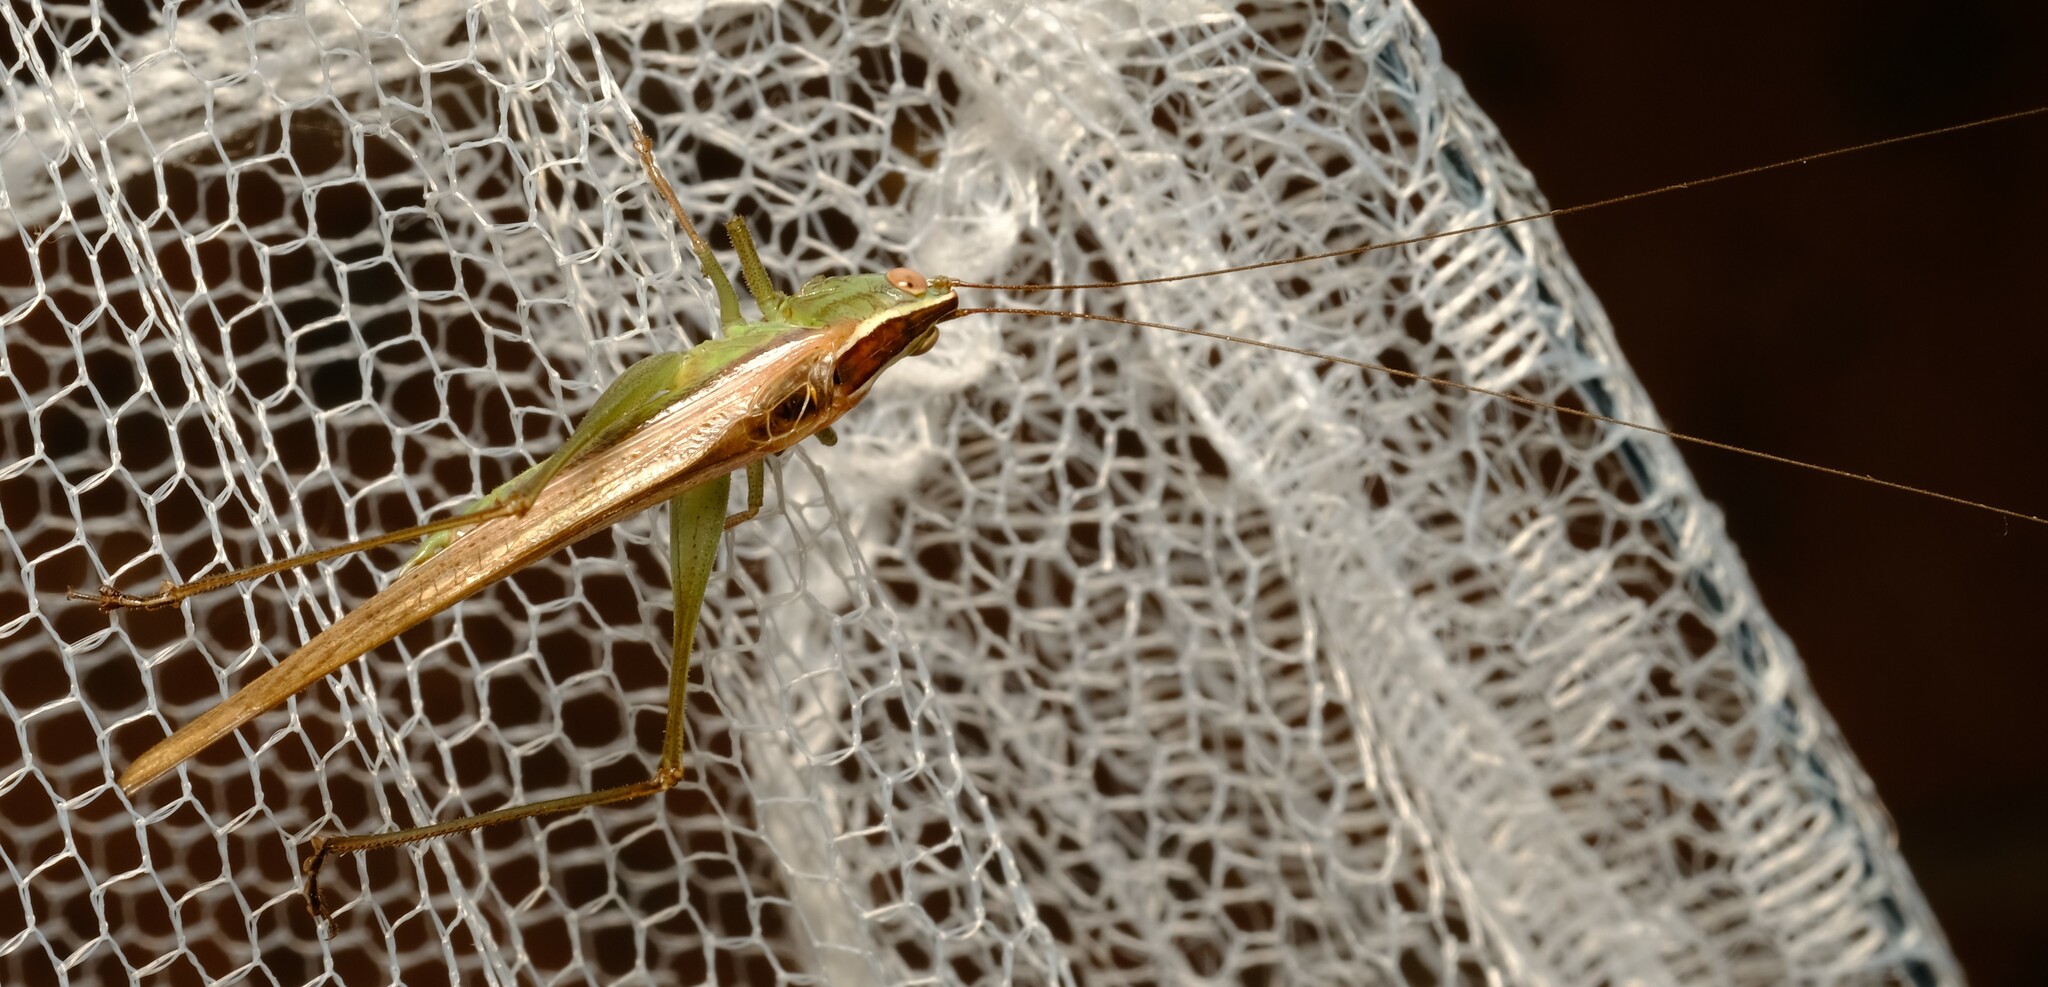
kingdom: Animalia
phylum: Arthropoda
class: Insecta
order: Orthoptera
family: Tettigoniidae
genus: Conocephalus
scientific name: Conocephalus upoluensis
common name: Upolu meadow katydid
